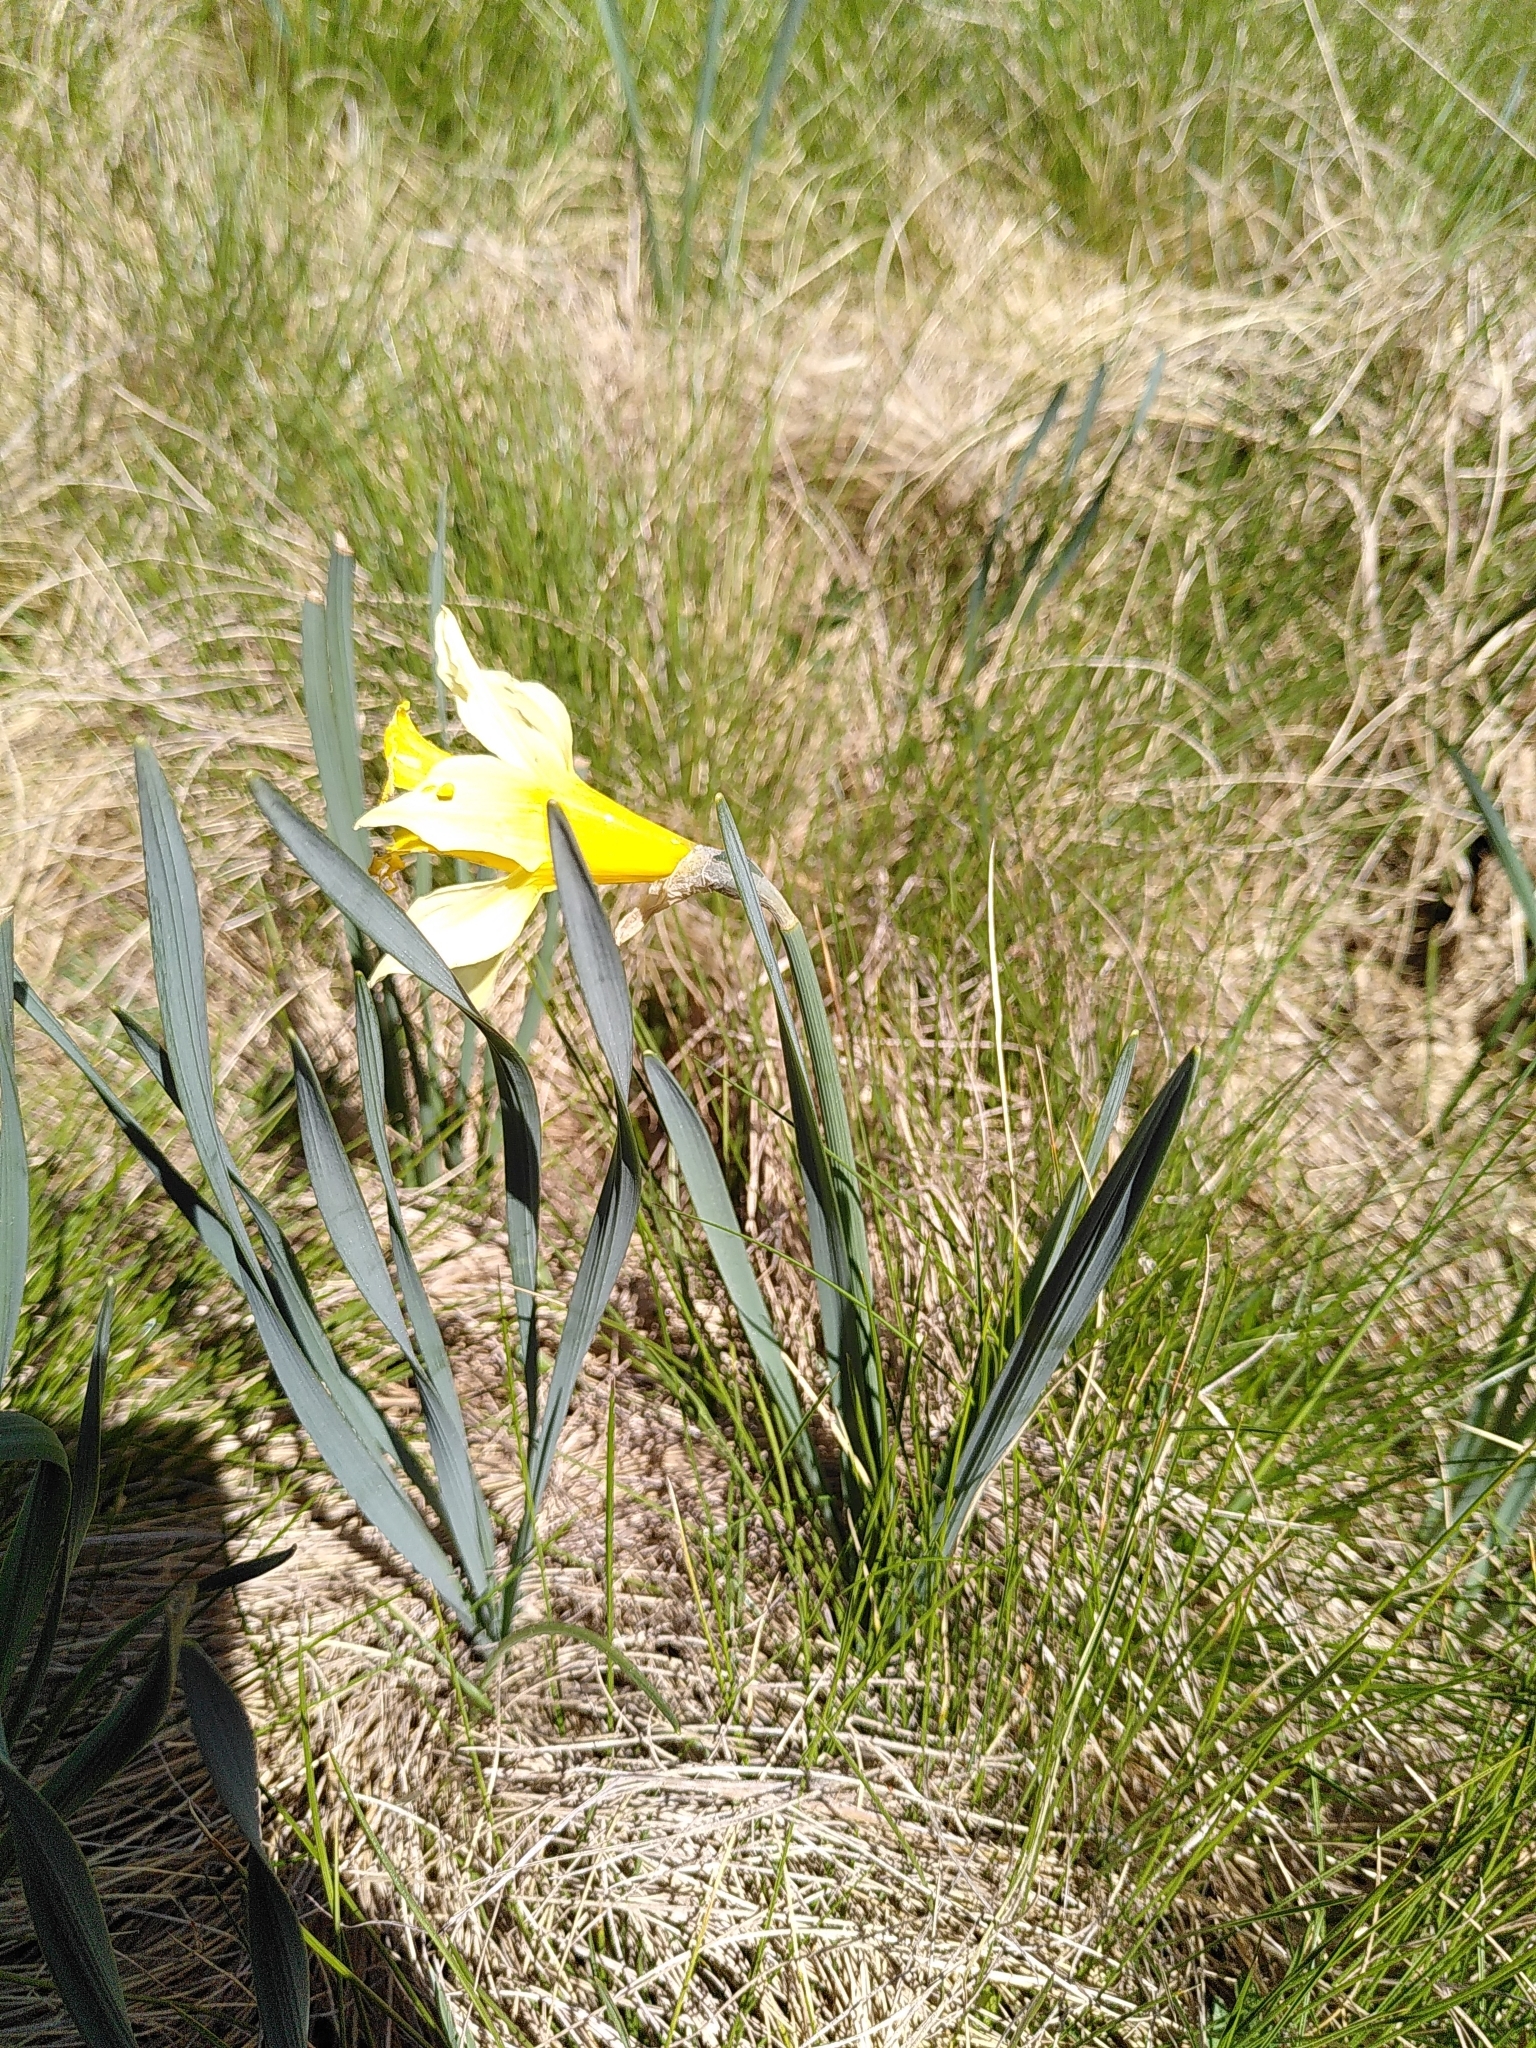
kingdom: Plantae
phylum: Tracheophyta
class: Liliopsida
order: Asparagales
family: Amaryllidaceae
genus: Narcissus
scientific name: Narcissus pseudonarcissus
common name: Daffodil
